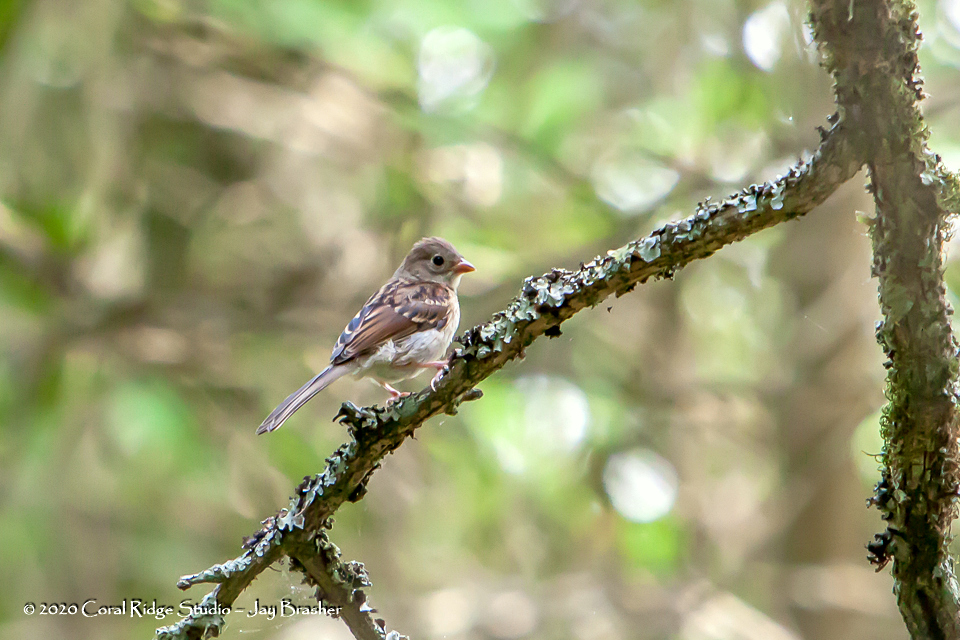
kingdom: Animalia
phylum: Chordata
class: Aves
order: Passeriformes
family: Passerellidae
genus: Spizella
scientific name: Spizella pusilla
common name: Field sparrow
